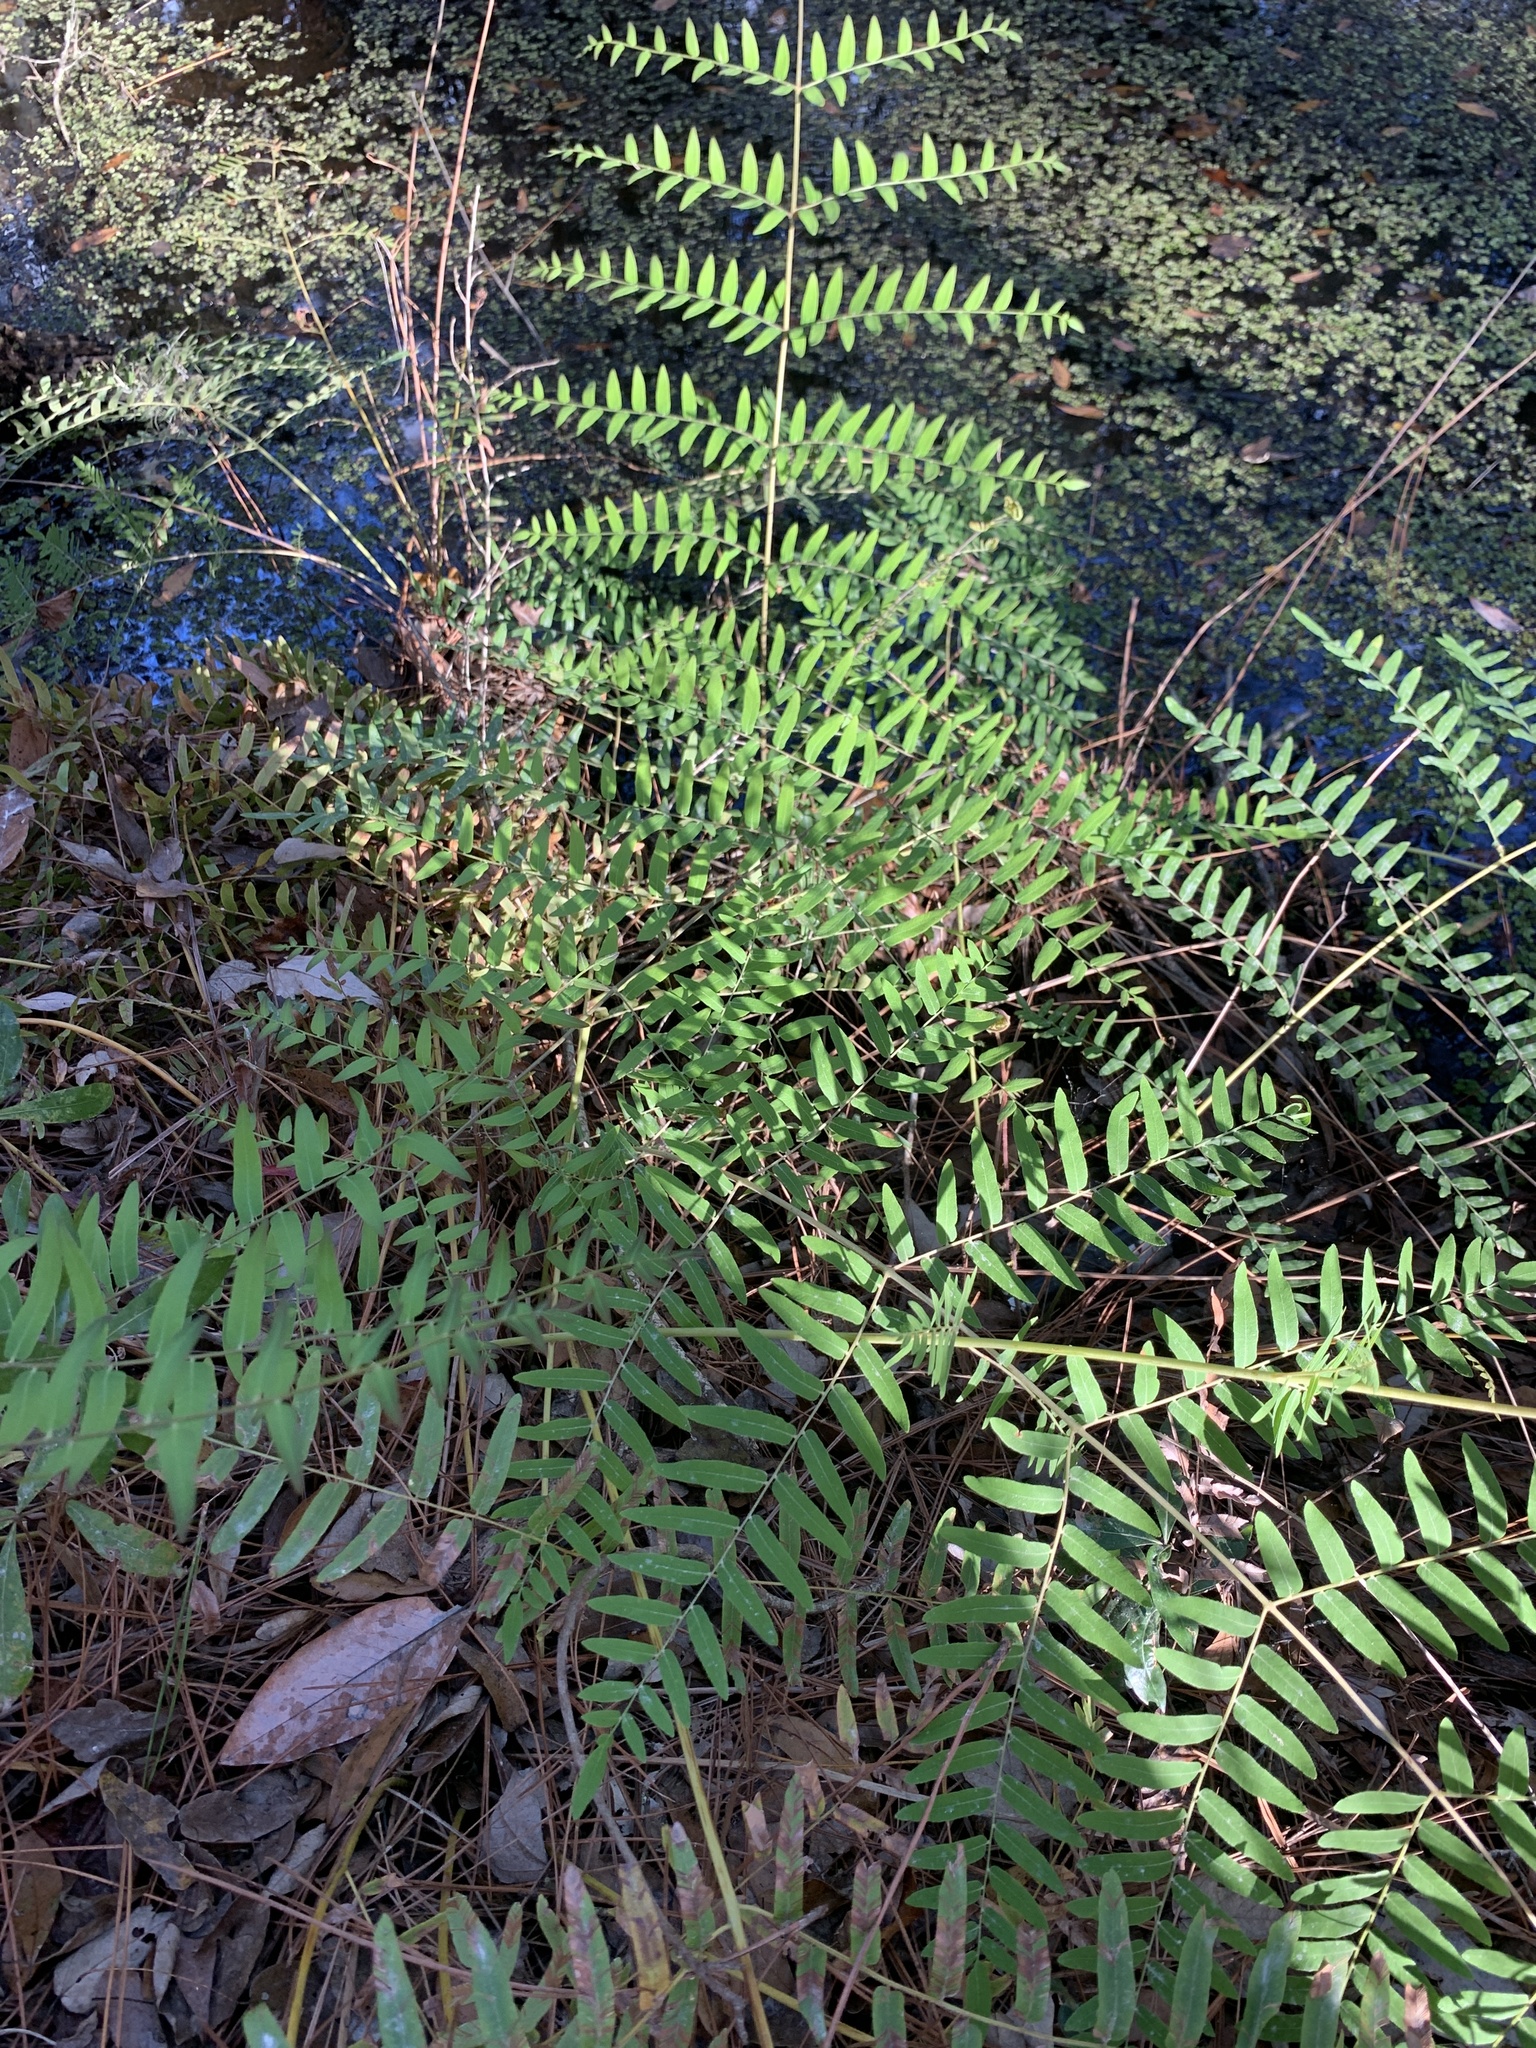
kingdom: Plantae
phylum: Tracheophyta
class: Polypodiopsida
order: Osmundales
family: Osmundaceae
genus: Osmunda
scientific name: Osmunda spectabilis
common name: American royal fern
